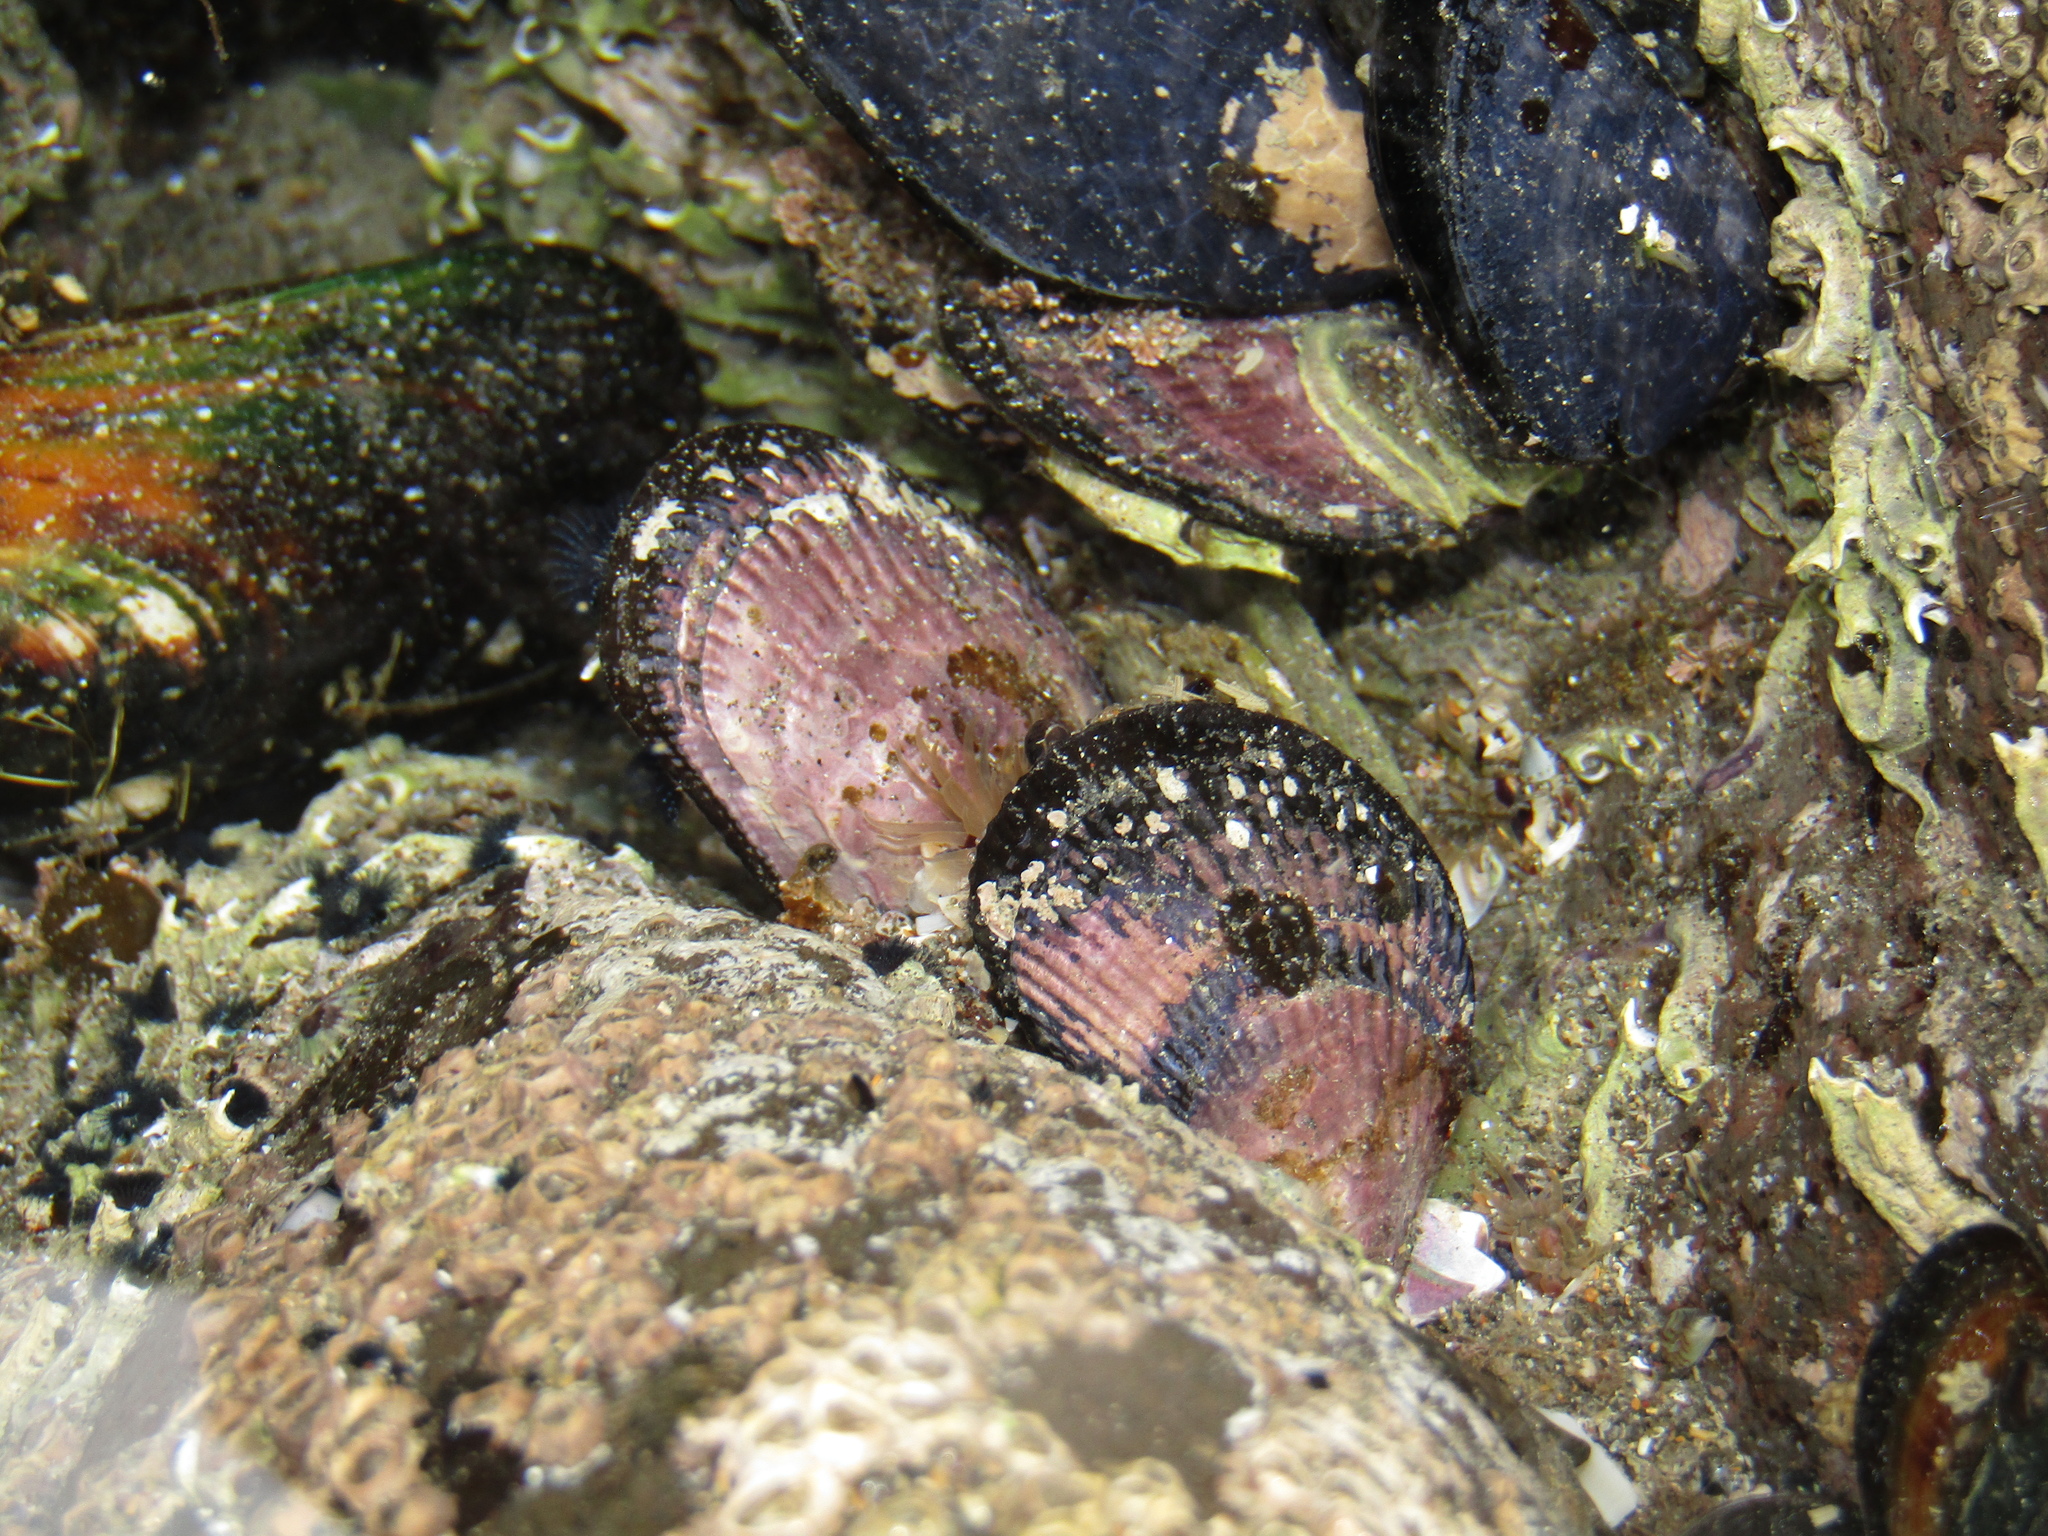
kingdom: Animalia
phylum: Mollusca
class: Bivalvia
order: Mytilida
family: Mytilidae
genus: Aulacomya
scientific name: Aulacomya maoriana
